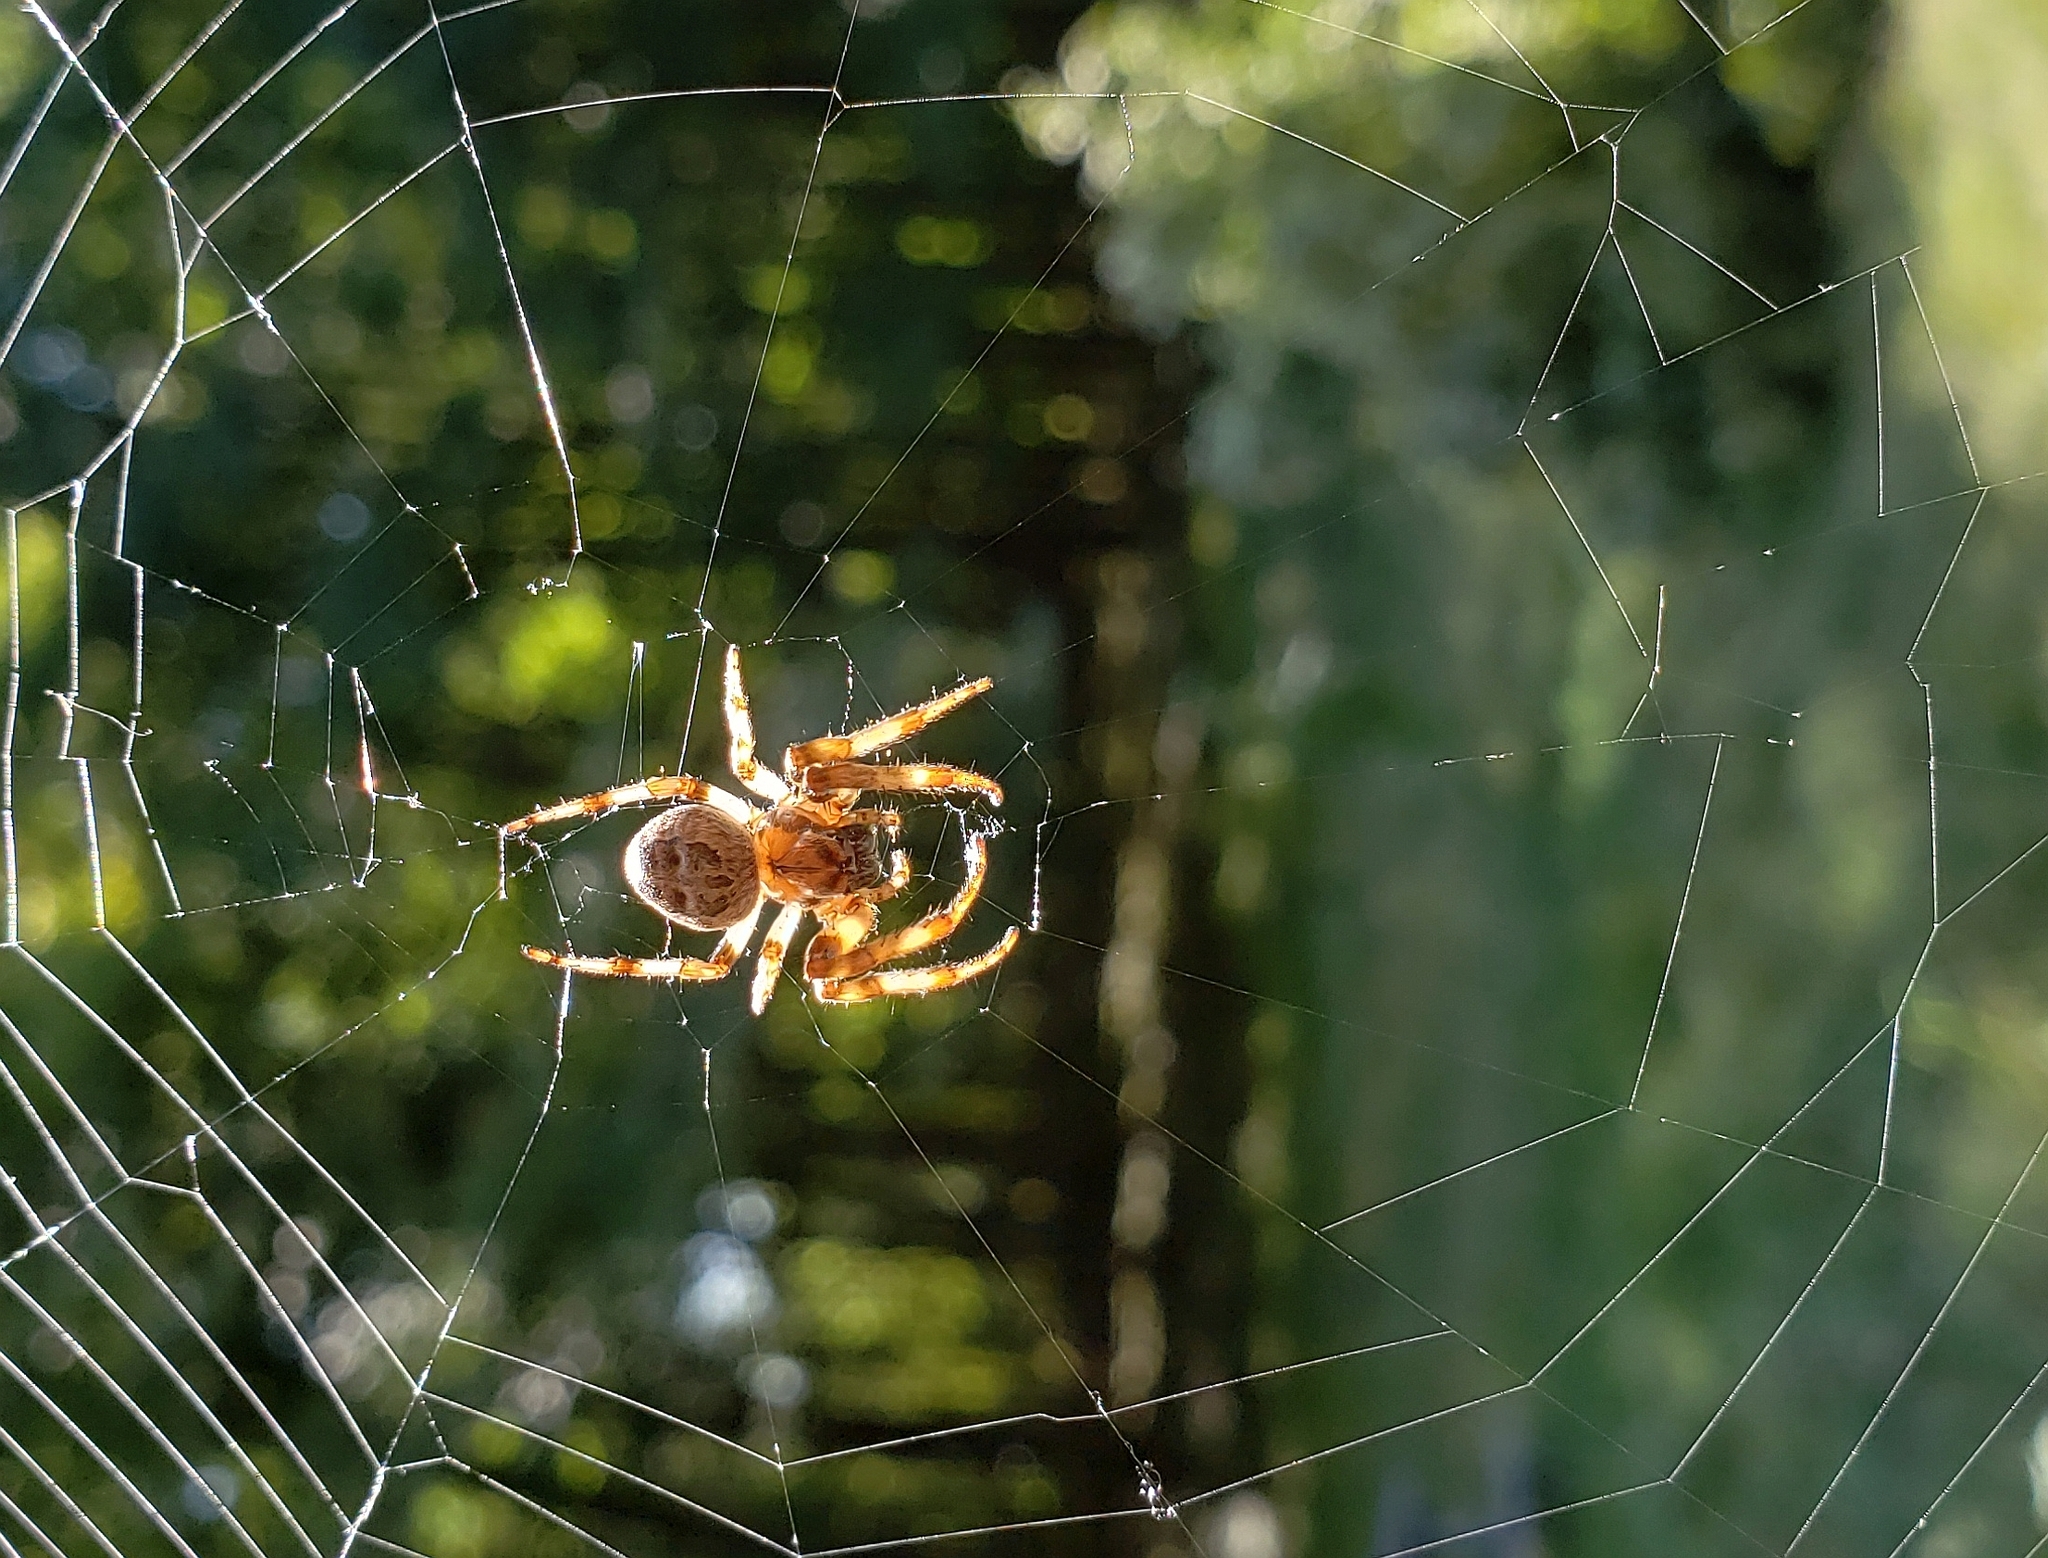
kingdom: Animalia
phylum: Arthropoda
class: Arachnida
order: Araneae
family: Araneidae
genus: Larinioides
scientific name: Larinioides cornutus
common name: Furrow orbweaver
